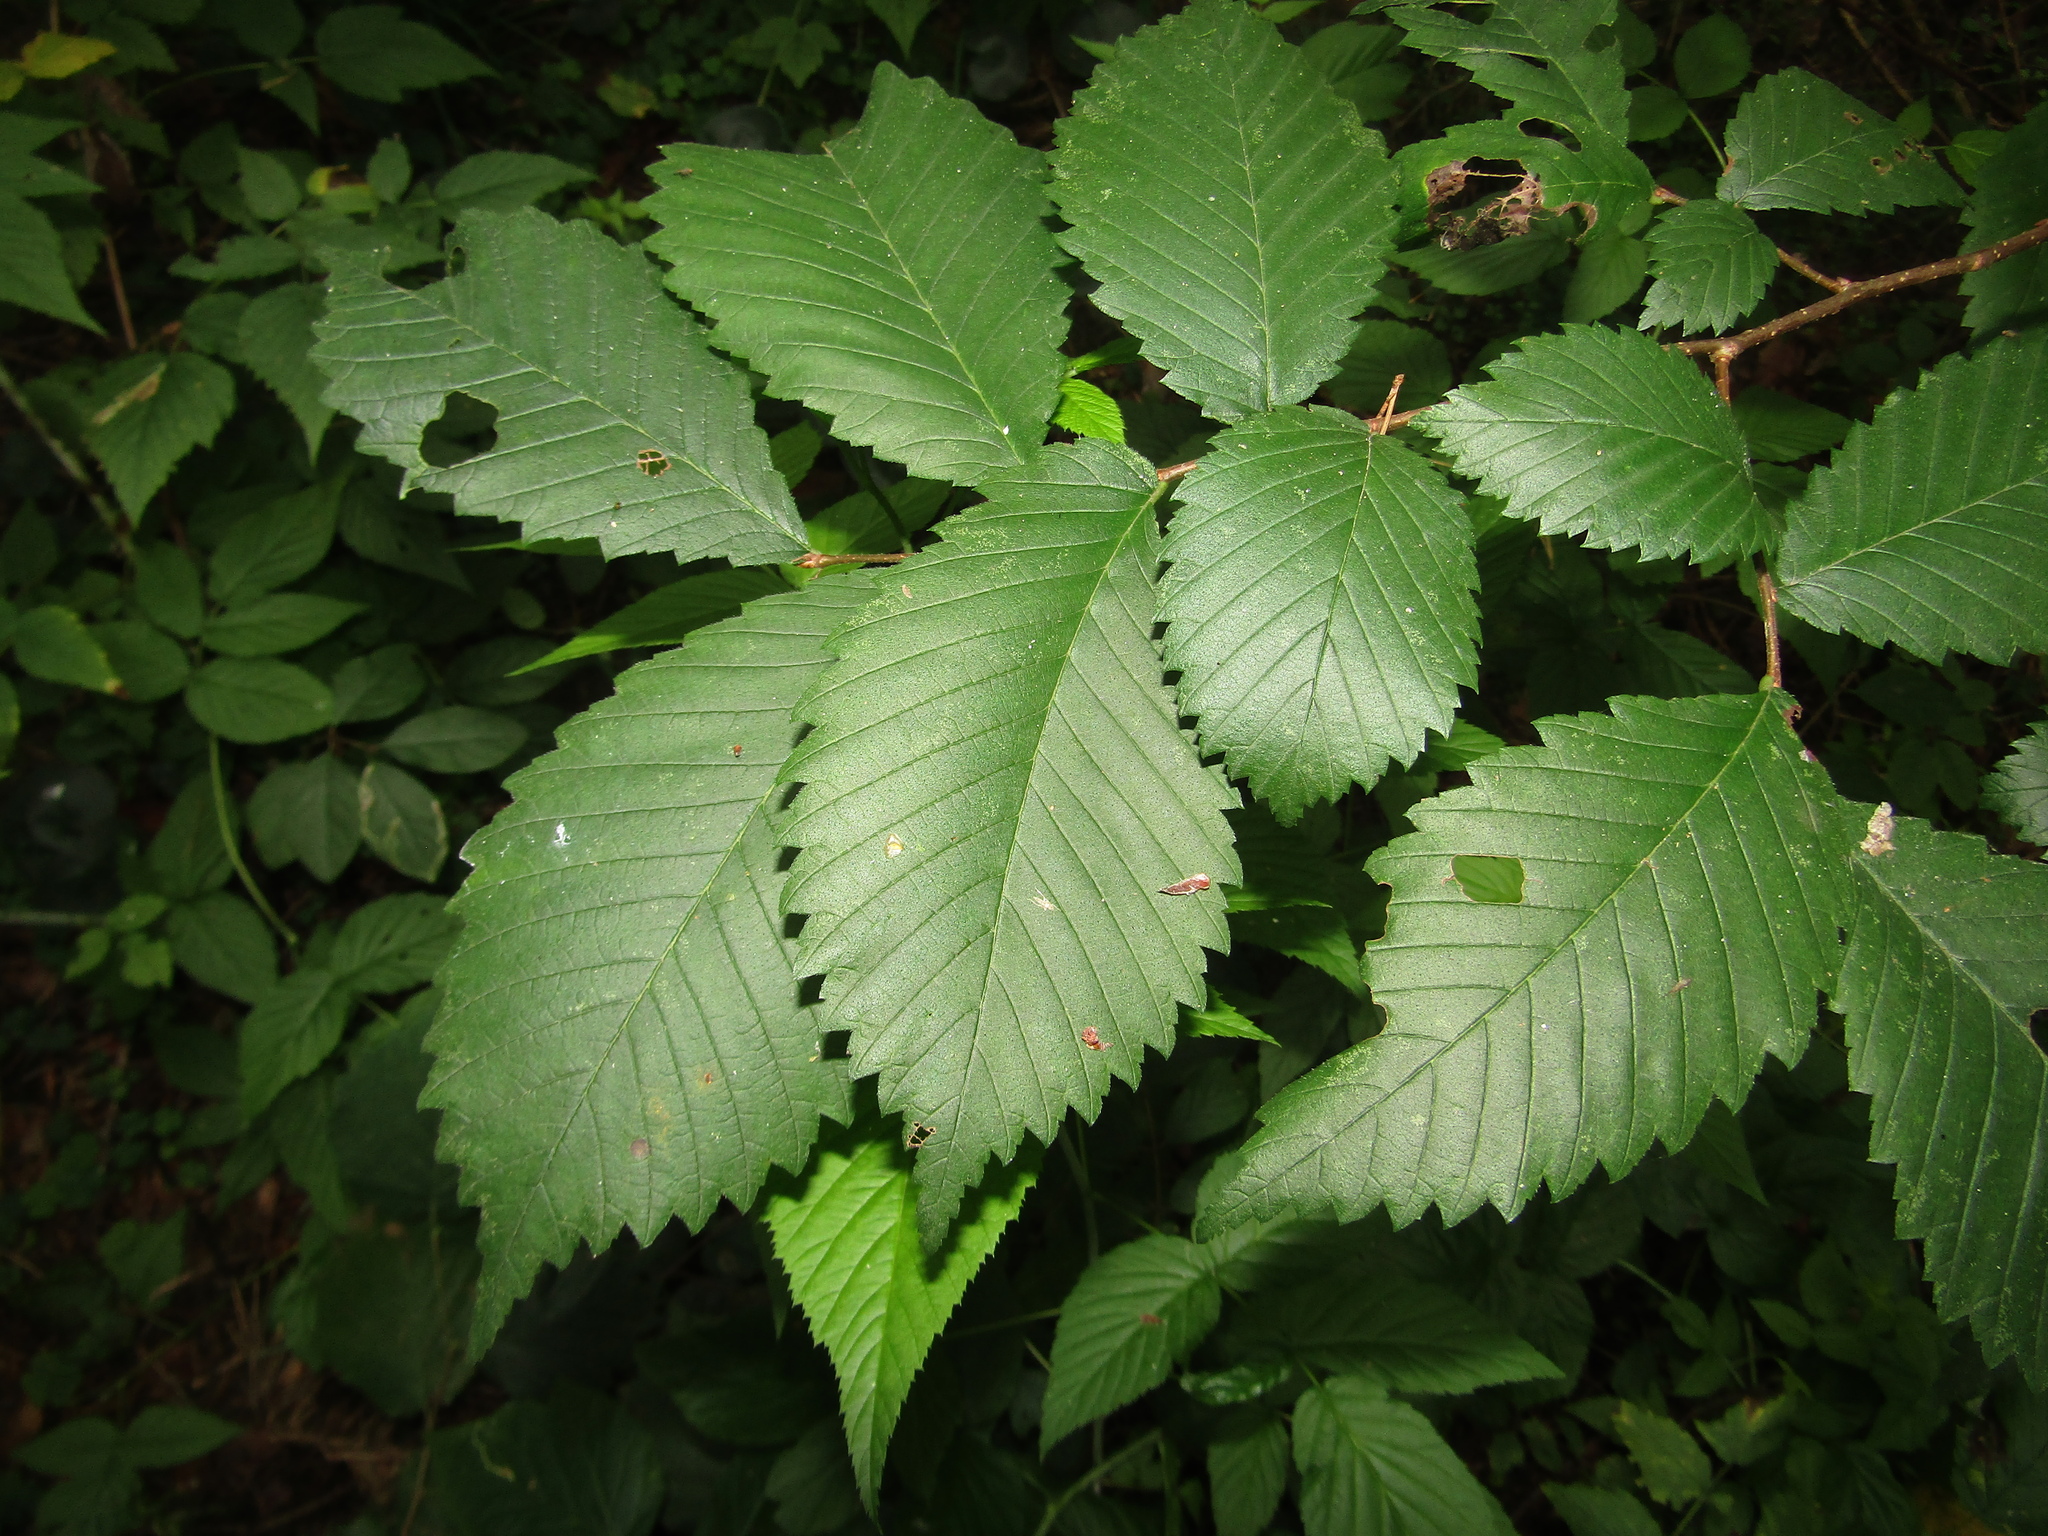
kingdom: Plantae
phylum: Tracheophyta
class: Magnoliopsida
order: Rosales
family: Ulmaceae
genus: Ulmus
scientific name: Ulmus laevis
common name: European white-elm
